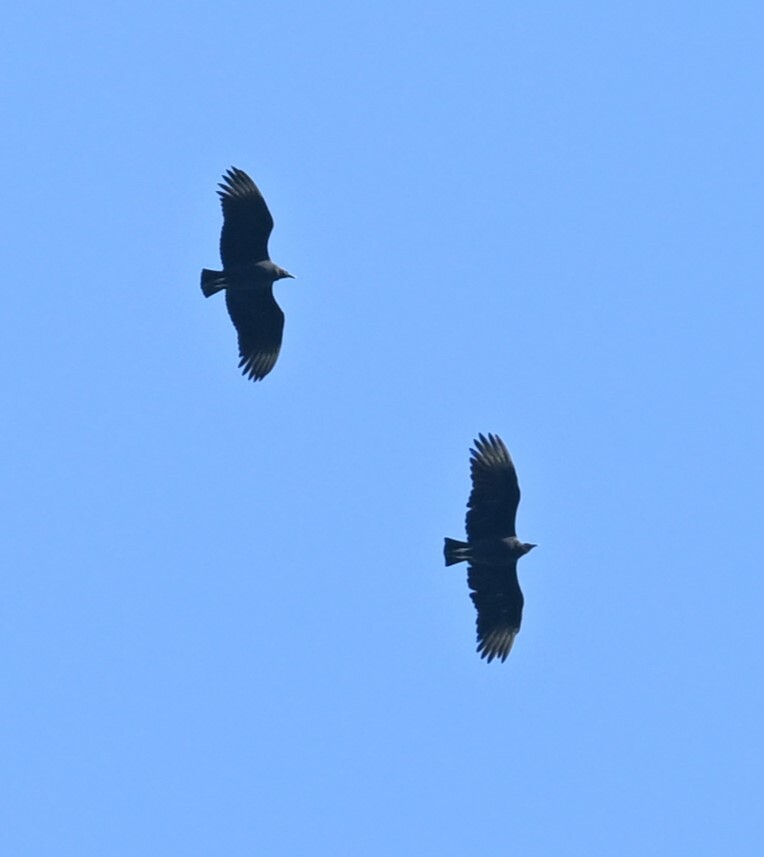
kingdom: Animalia
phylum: Chordata
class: Aves
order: Accipitriformes
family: Cathartidae
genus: Coragyps
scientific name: Coragyps atratus
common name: Black vulture
